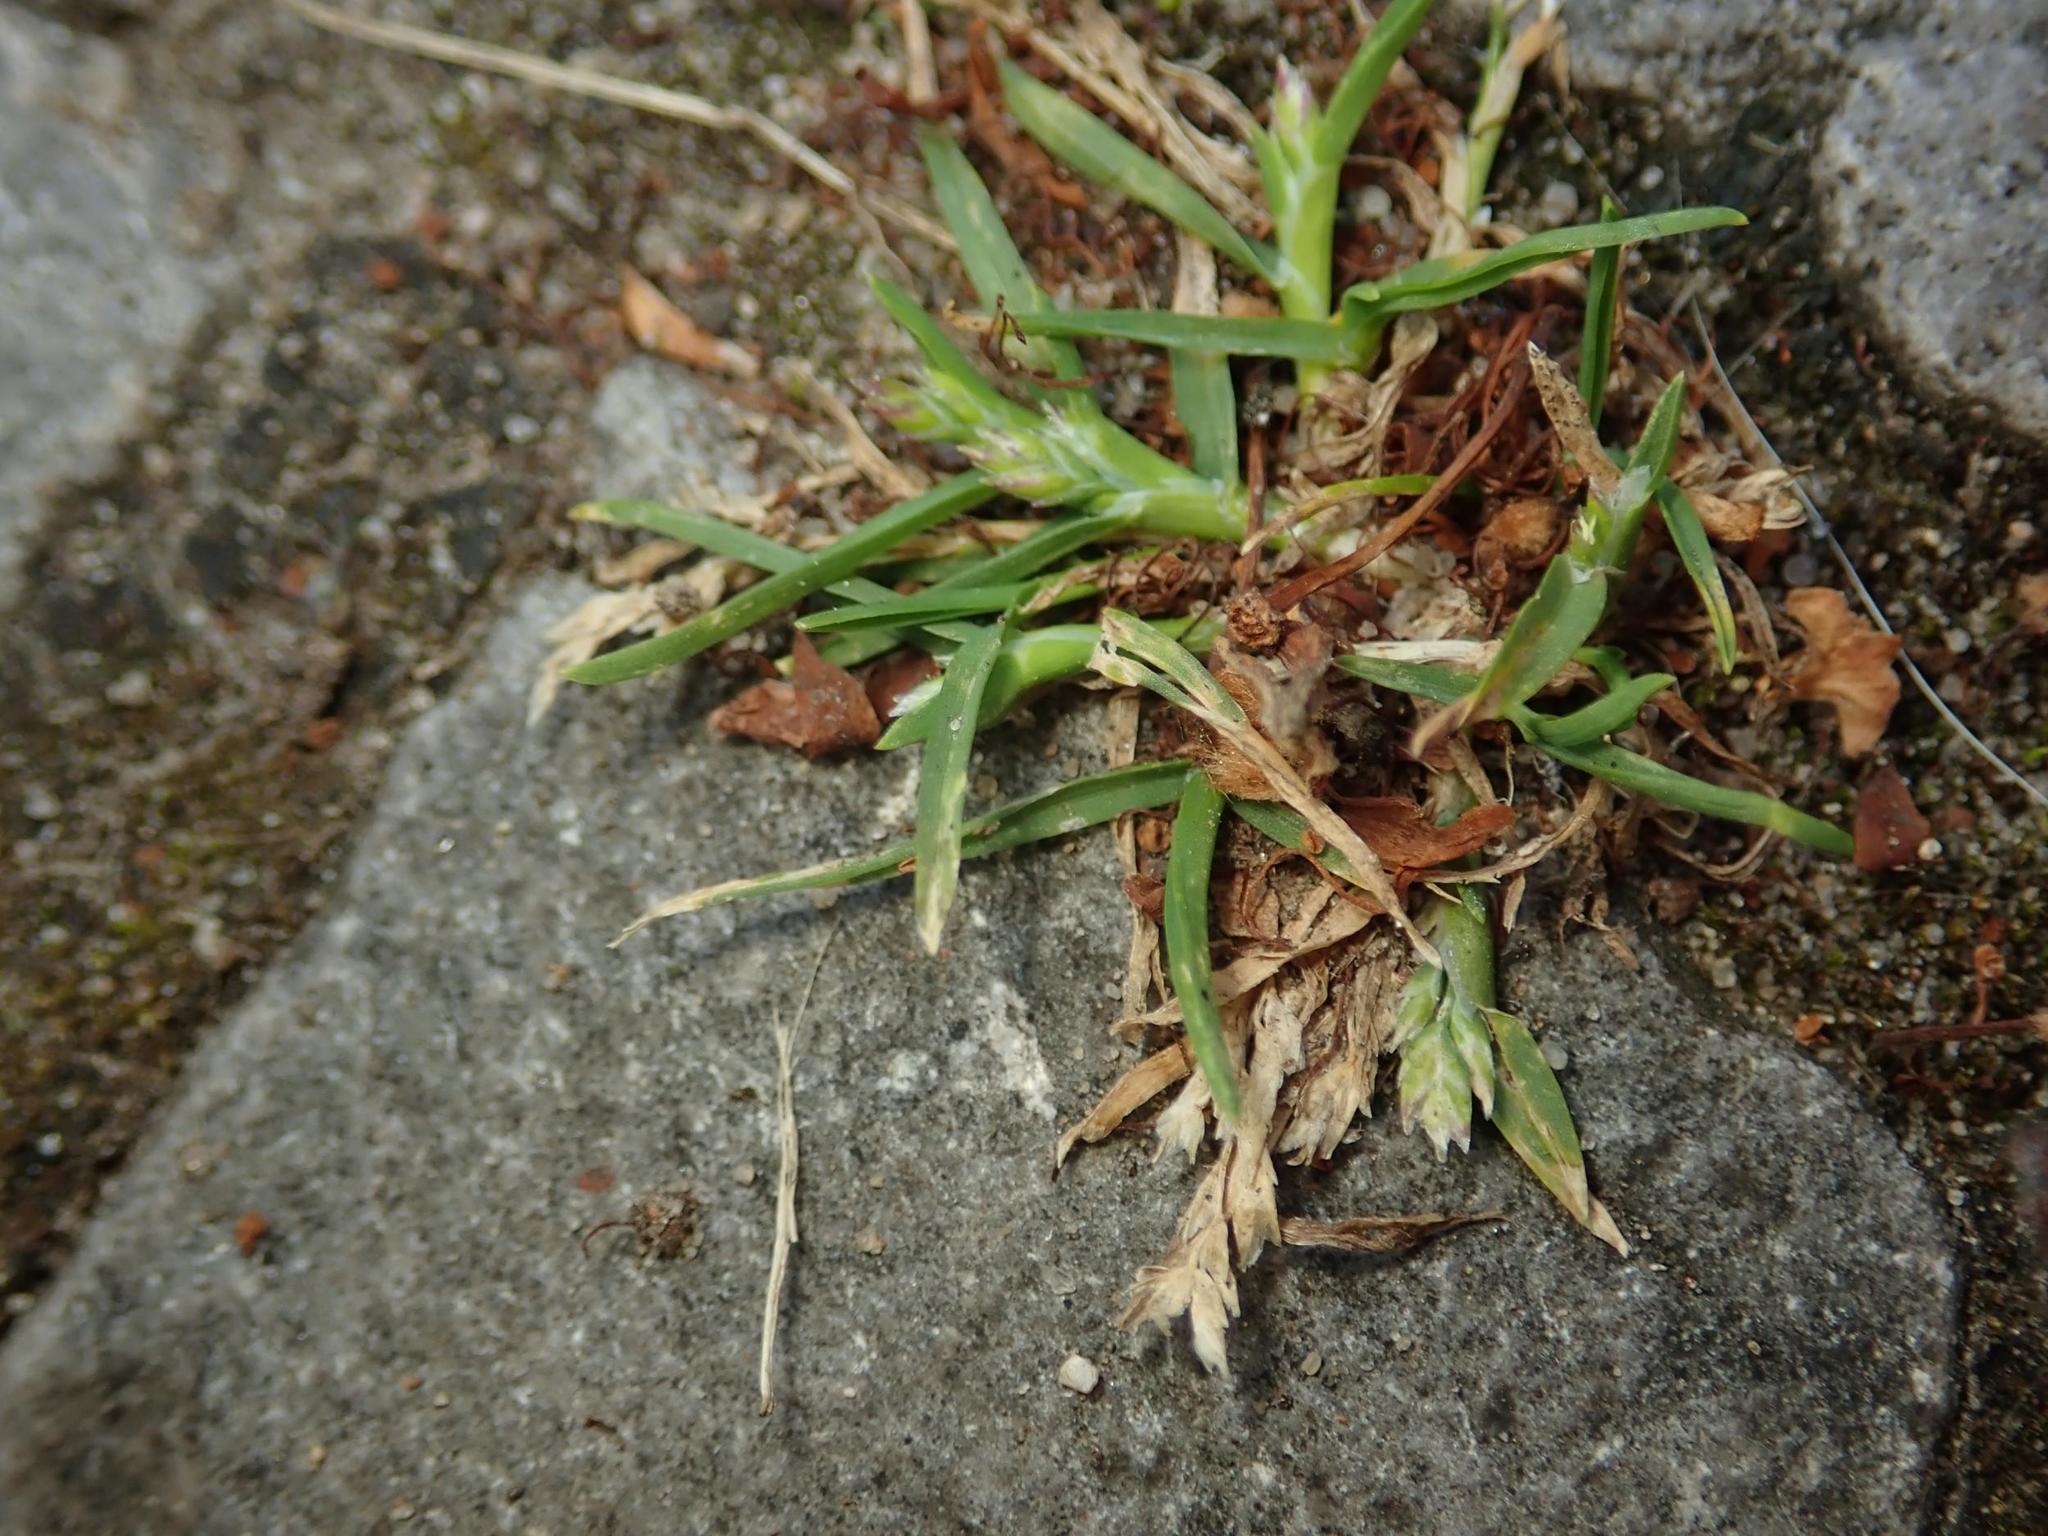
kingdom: Plantae
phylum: Tracheophyta
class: Liliopsida
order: Poales
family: Poaceae
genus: Poa
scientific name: Poa annua
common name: Annual bluegrass
